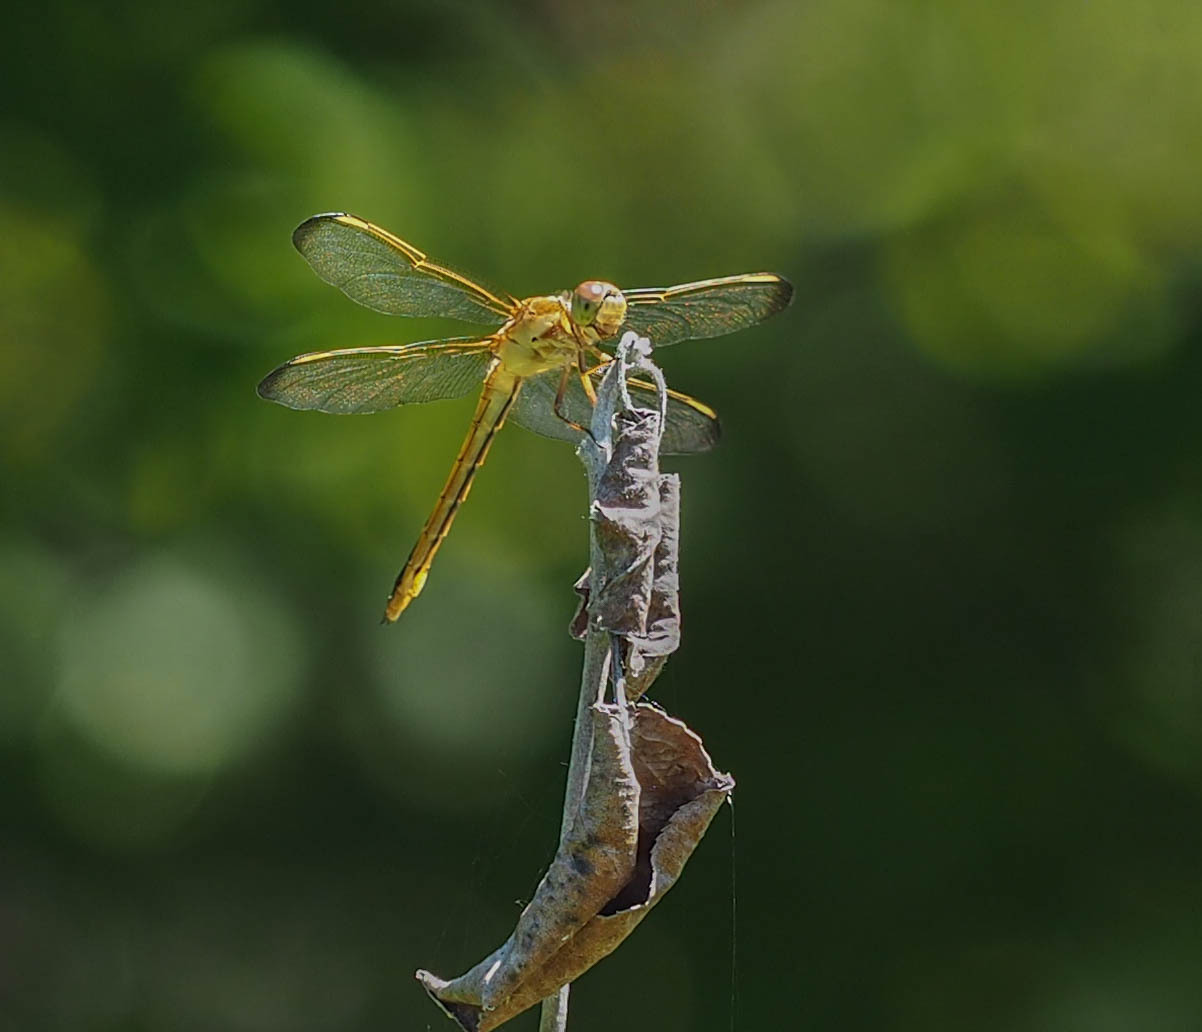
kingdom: Animalia
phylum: Arthropoda
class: Insecta
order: Odonata
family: Libellulidae
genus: Libellula
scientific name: Libellula needhami
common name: Needham's skimmer
